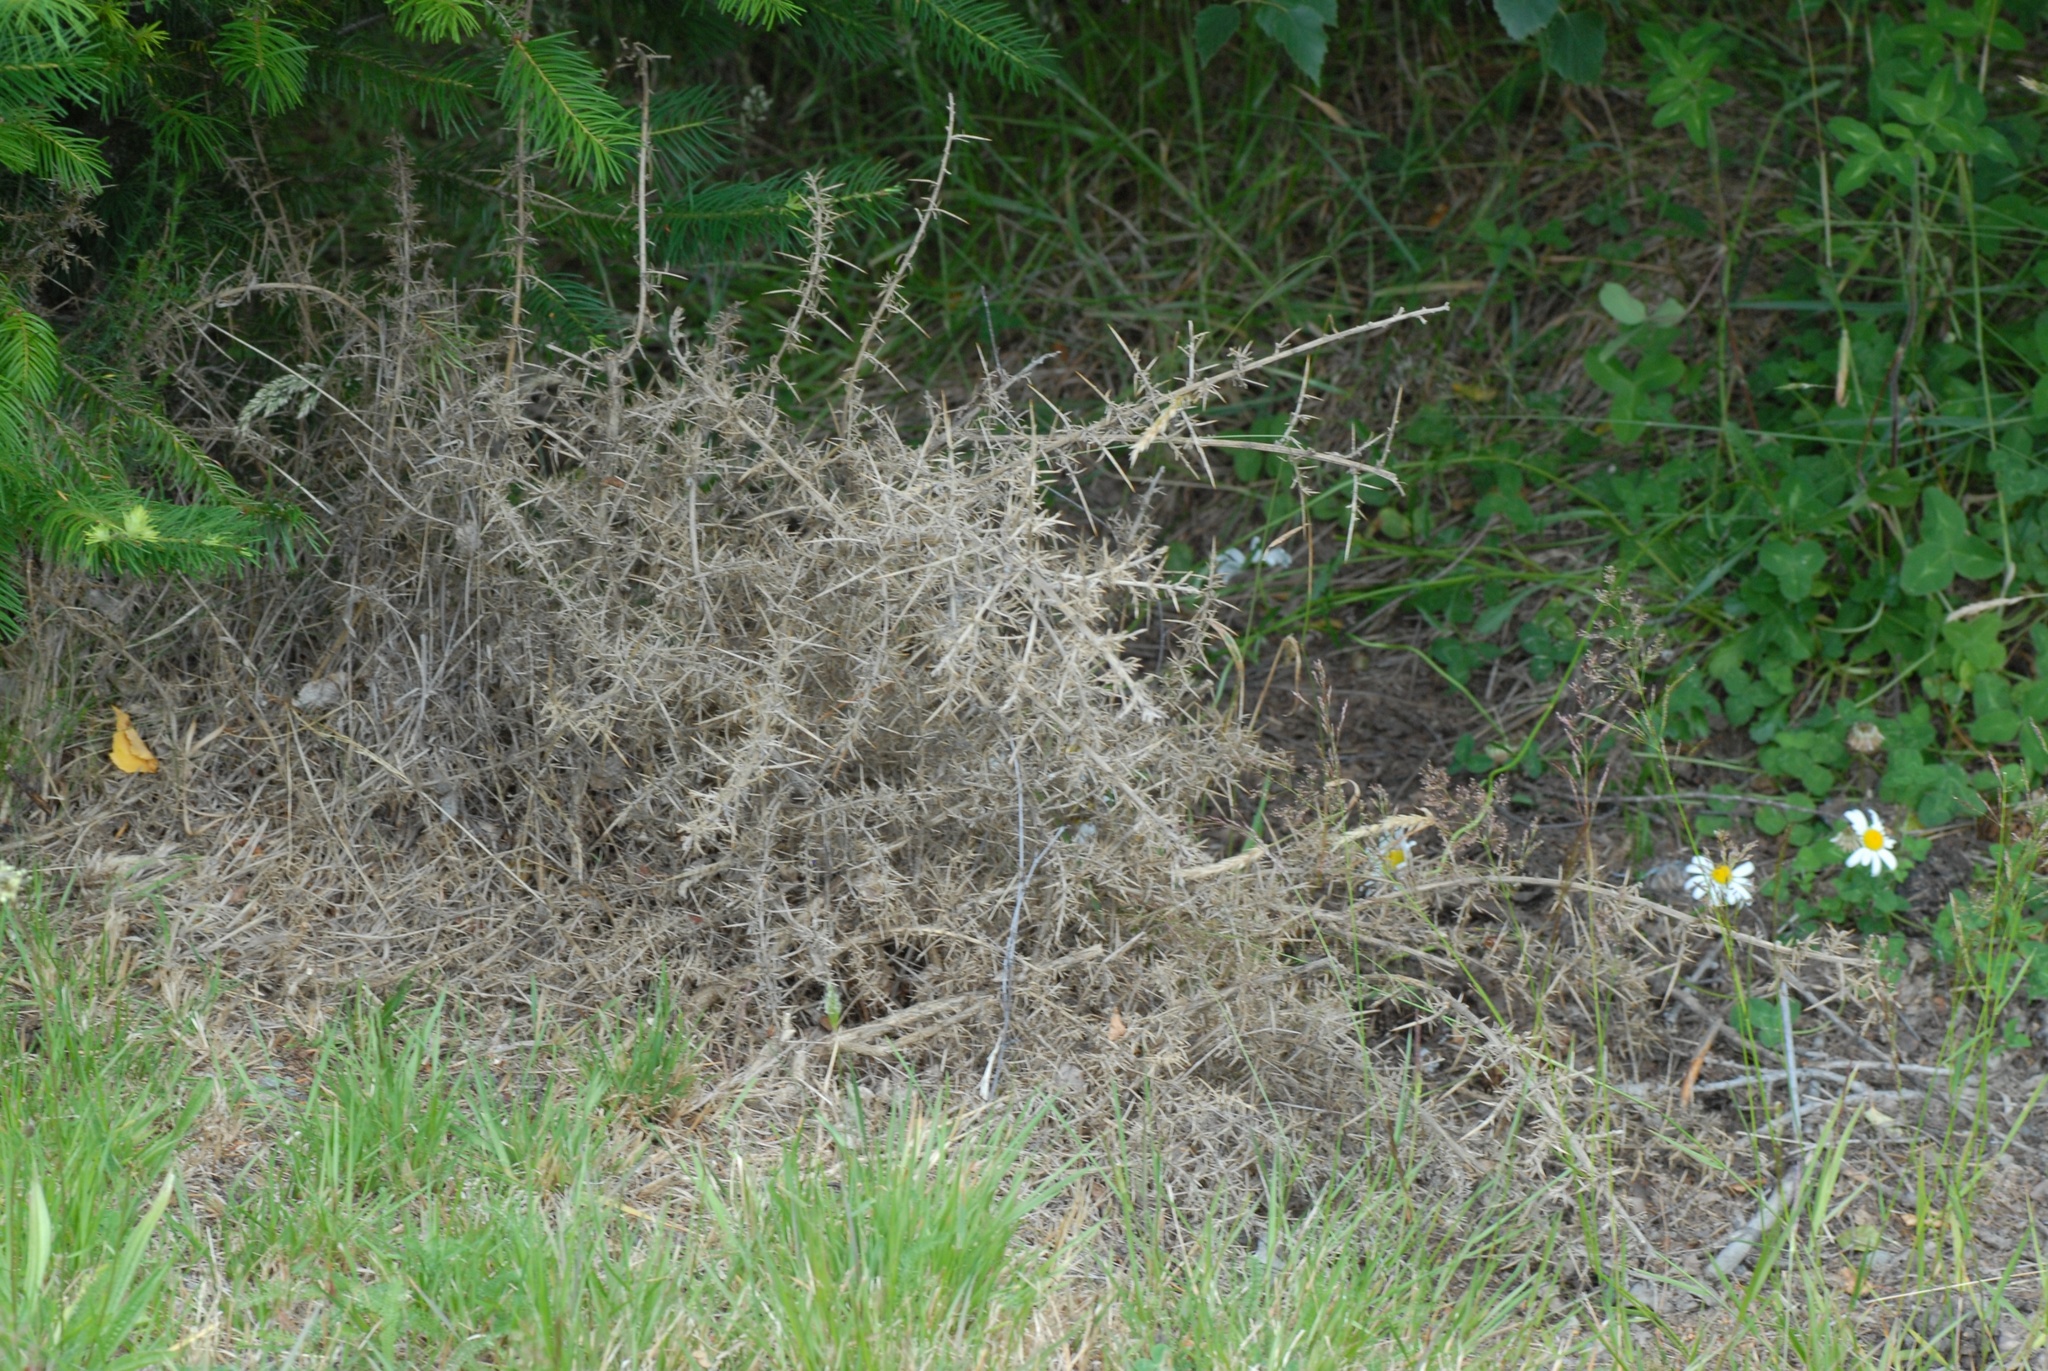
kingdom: Plantae
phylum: Tracheophyta
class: Magnoliopsida
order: Fabales
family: Fabaceae
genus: Ulex
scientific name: Ulex europaeus
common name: Common gorse
